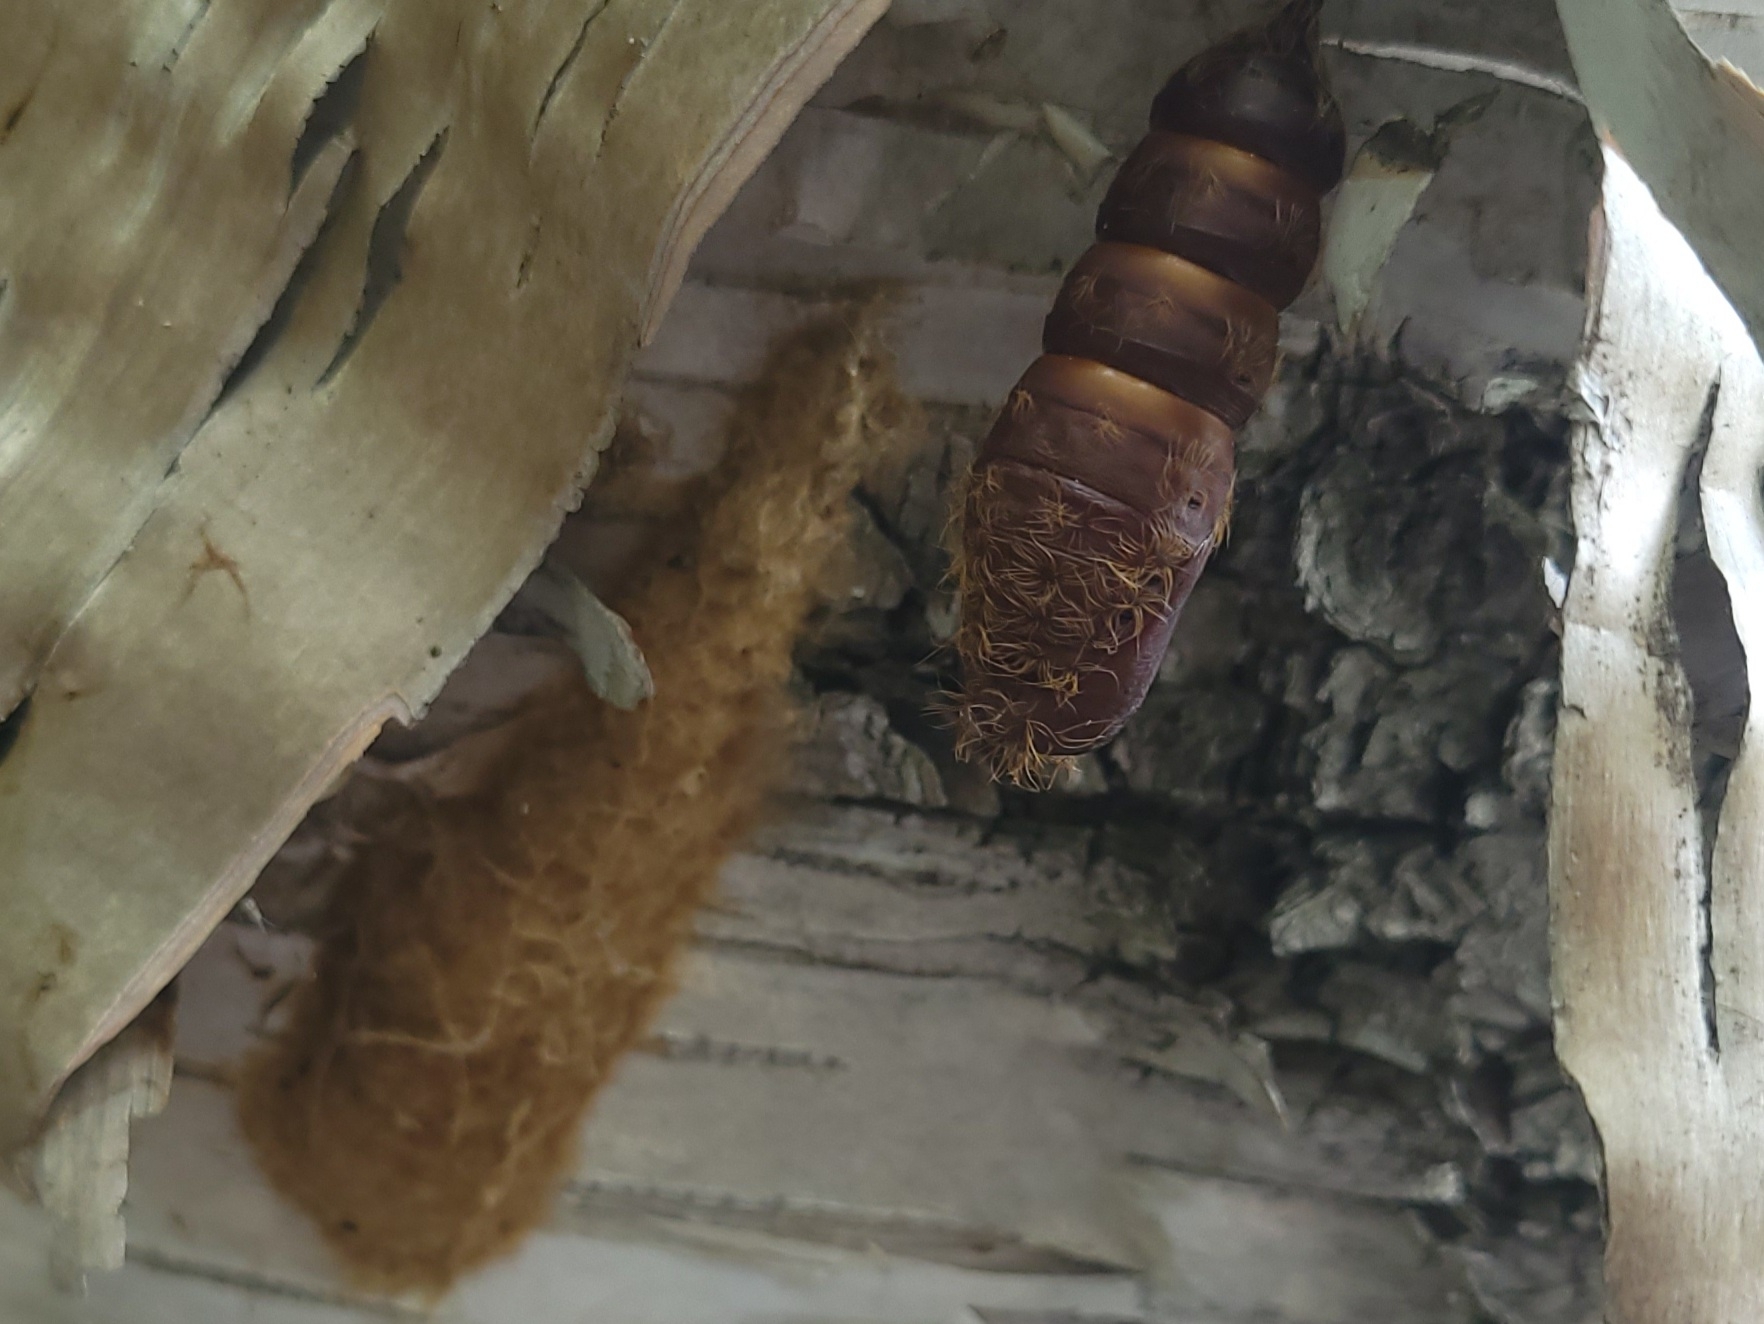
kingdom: Animalia
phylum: Arthropoda
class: Insecta
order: Lepidoptera
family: Erebidae
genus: Lymantria
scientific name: Lymantria dispar
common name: Gypsy moth
